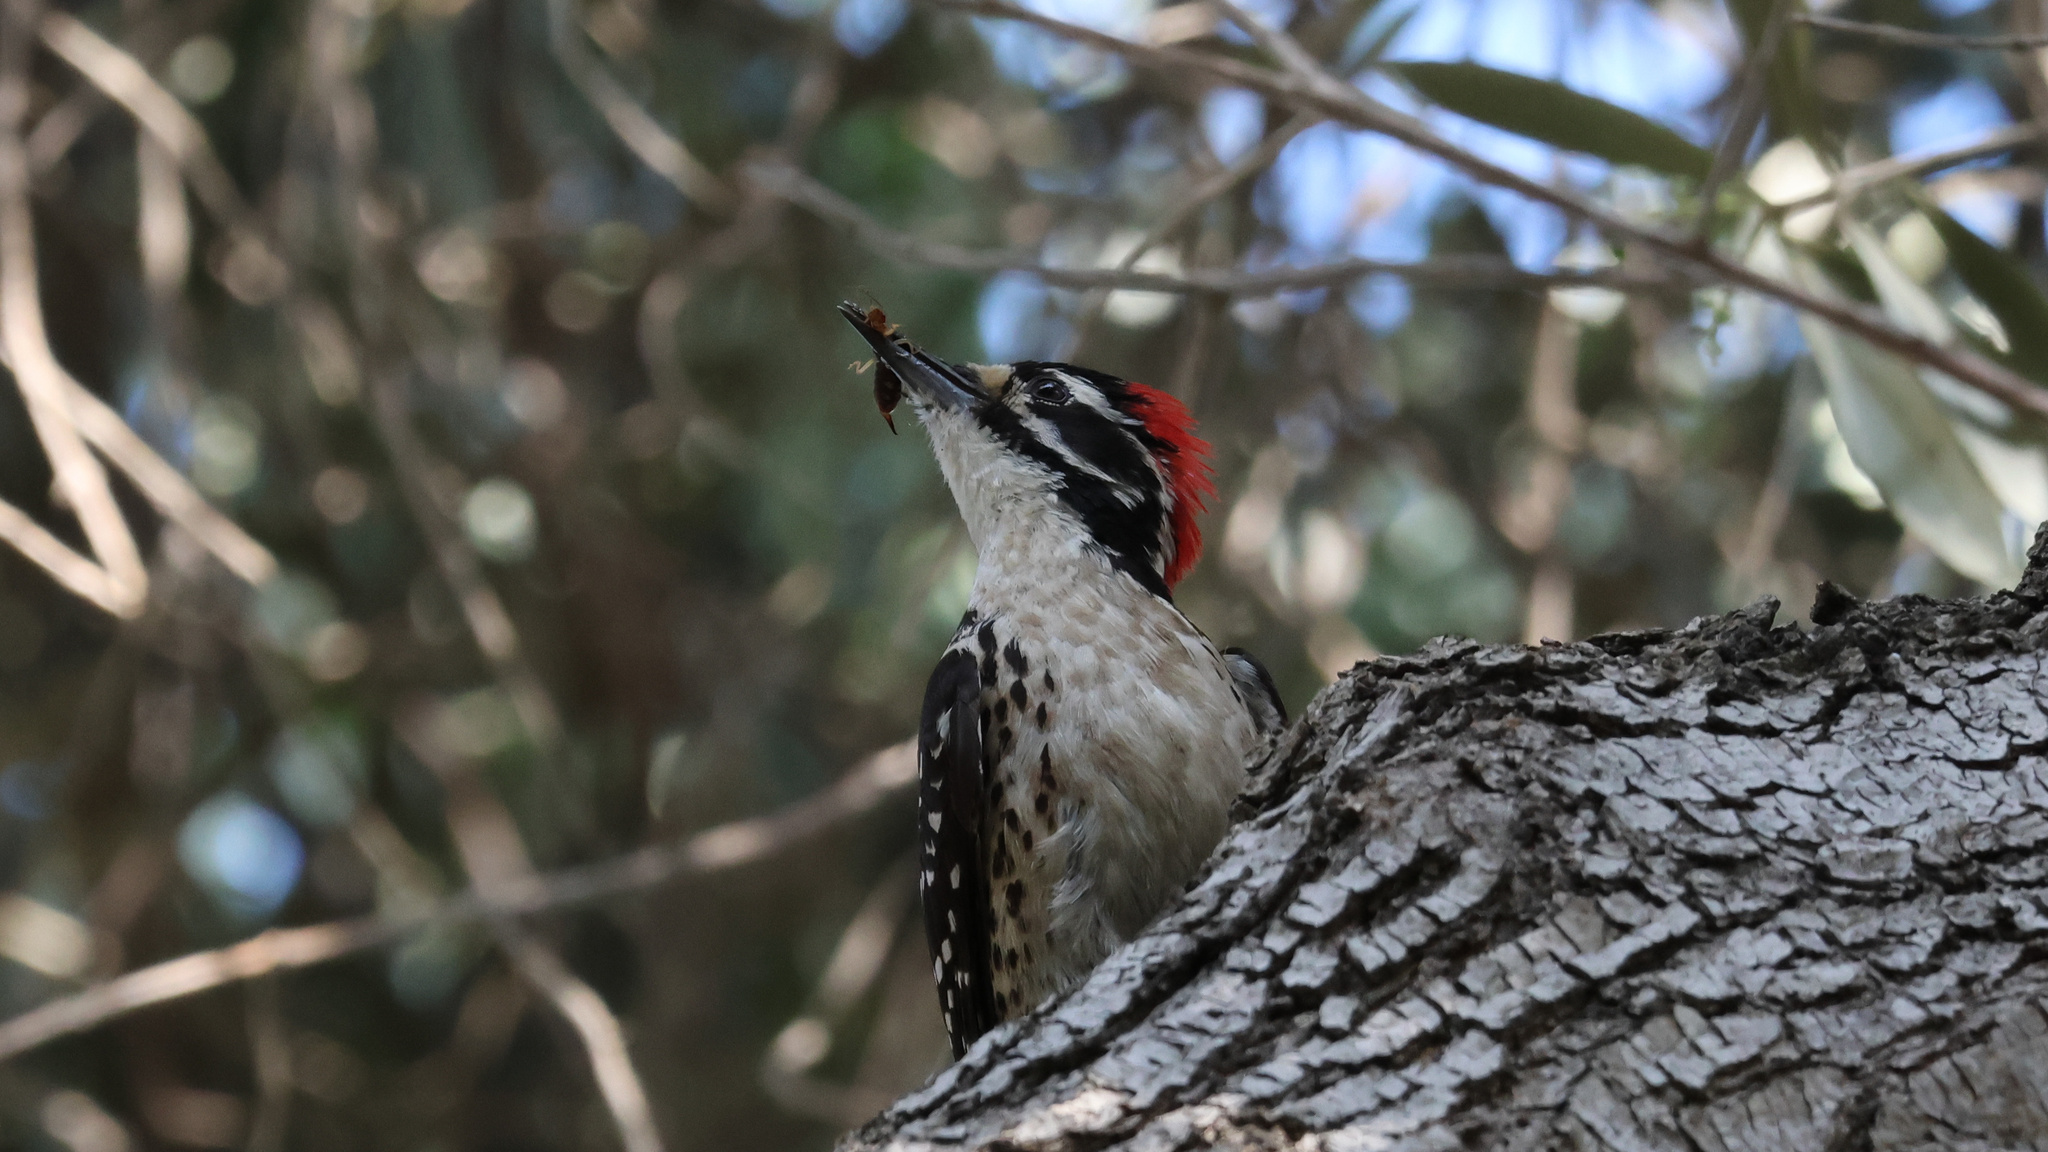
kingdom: Animalia
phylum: Chordata
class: Aves
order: Piciformes
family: Picidae
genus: Dryobates
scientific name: Dryobates nuttallii
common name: Nuttall's woodpecker
